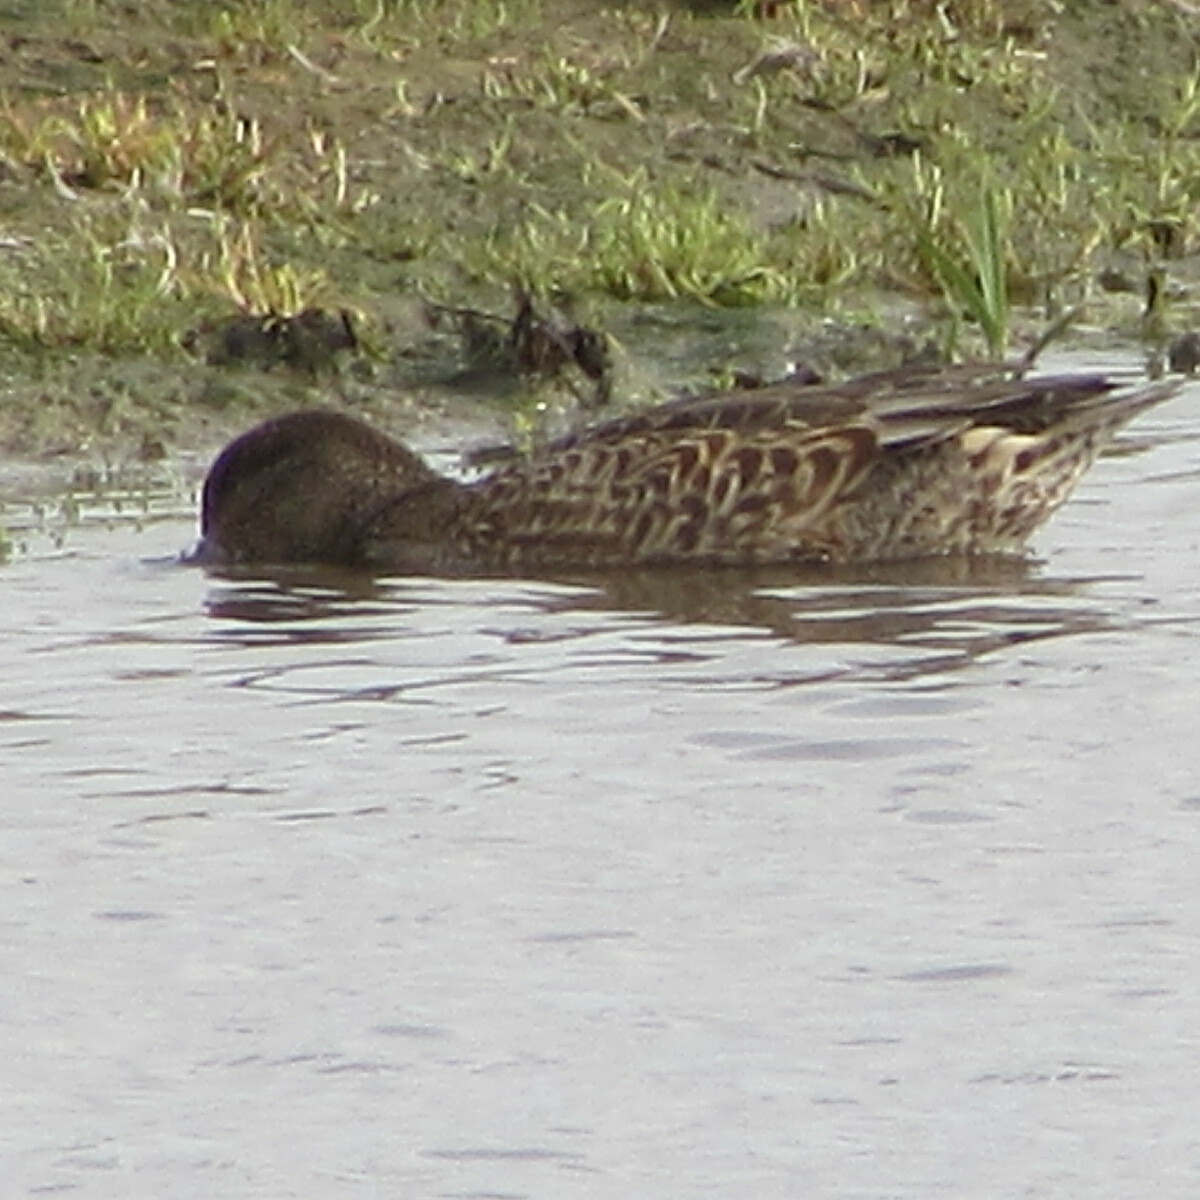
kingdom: Animalia
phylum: Chordata
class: Aves
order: Anseriformes
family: Anatidae
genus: Anas
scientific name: Anas crecca
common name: Eurasian teal
